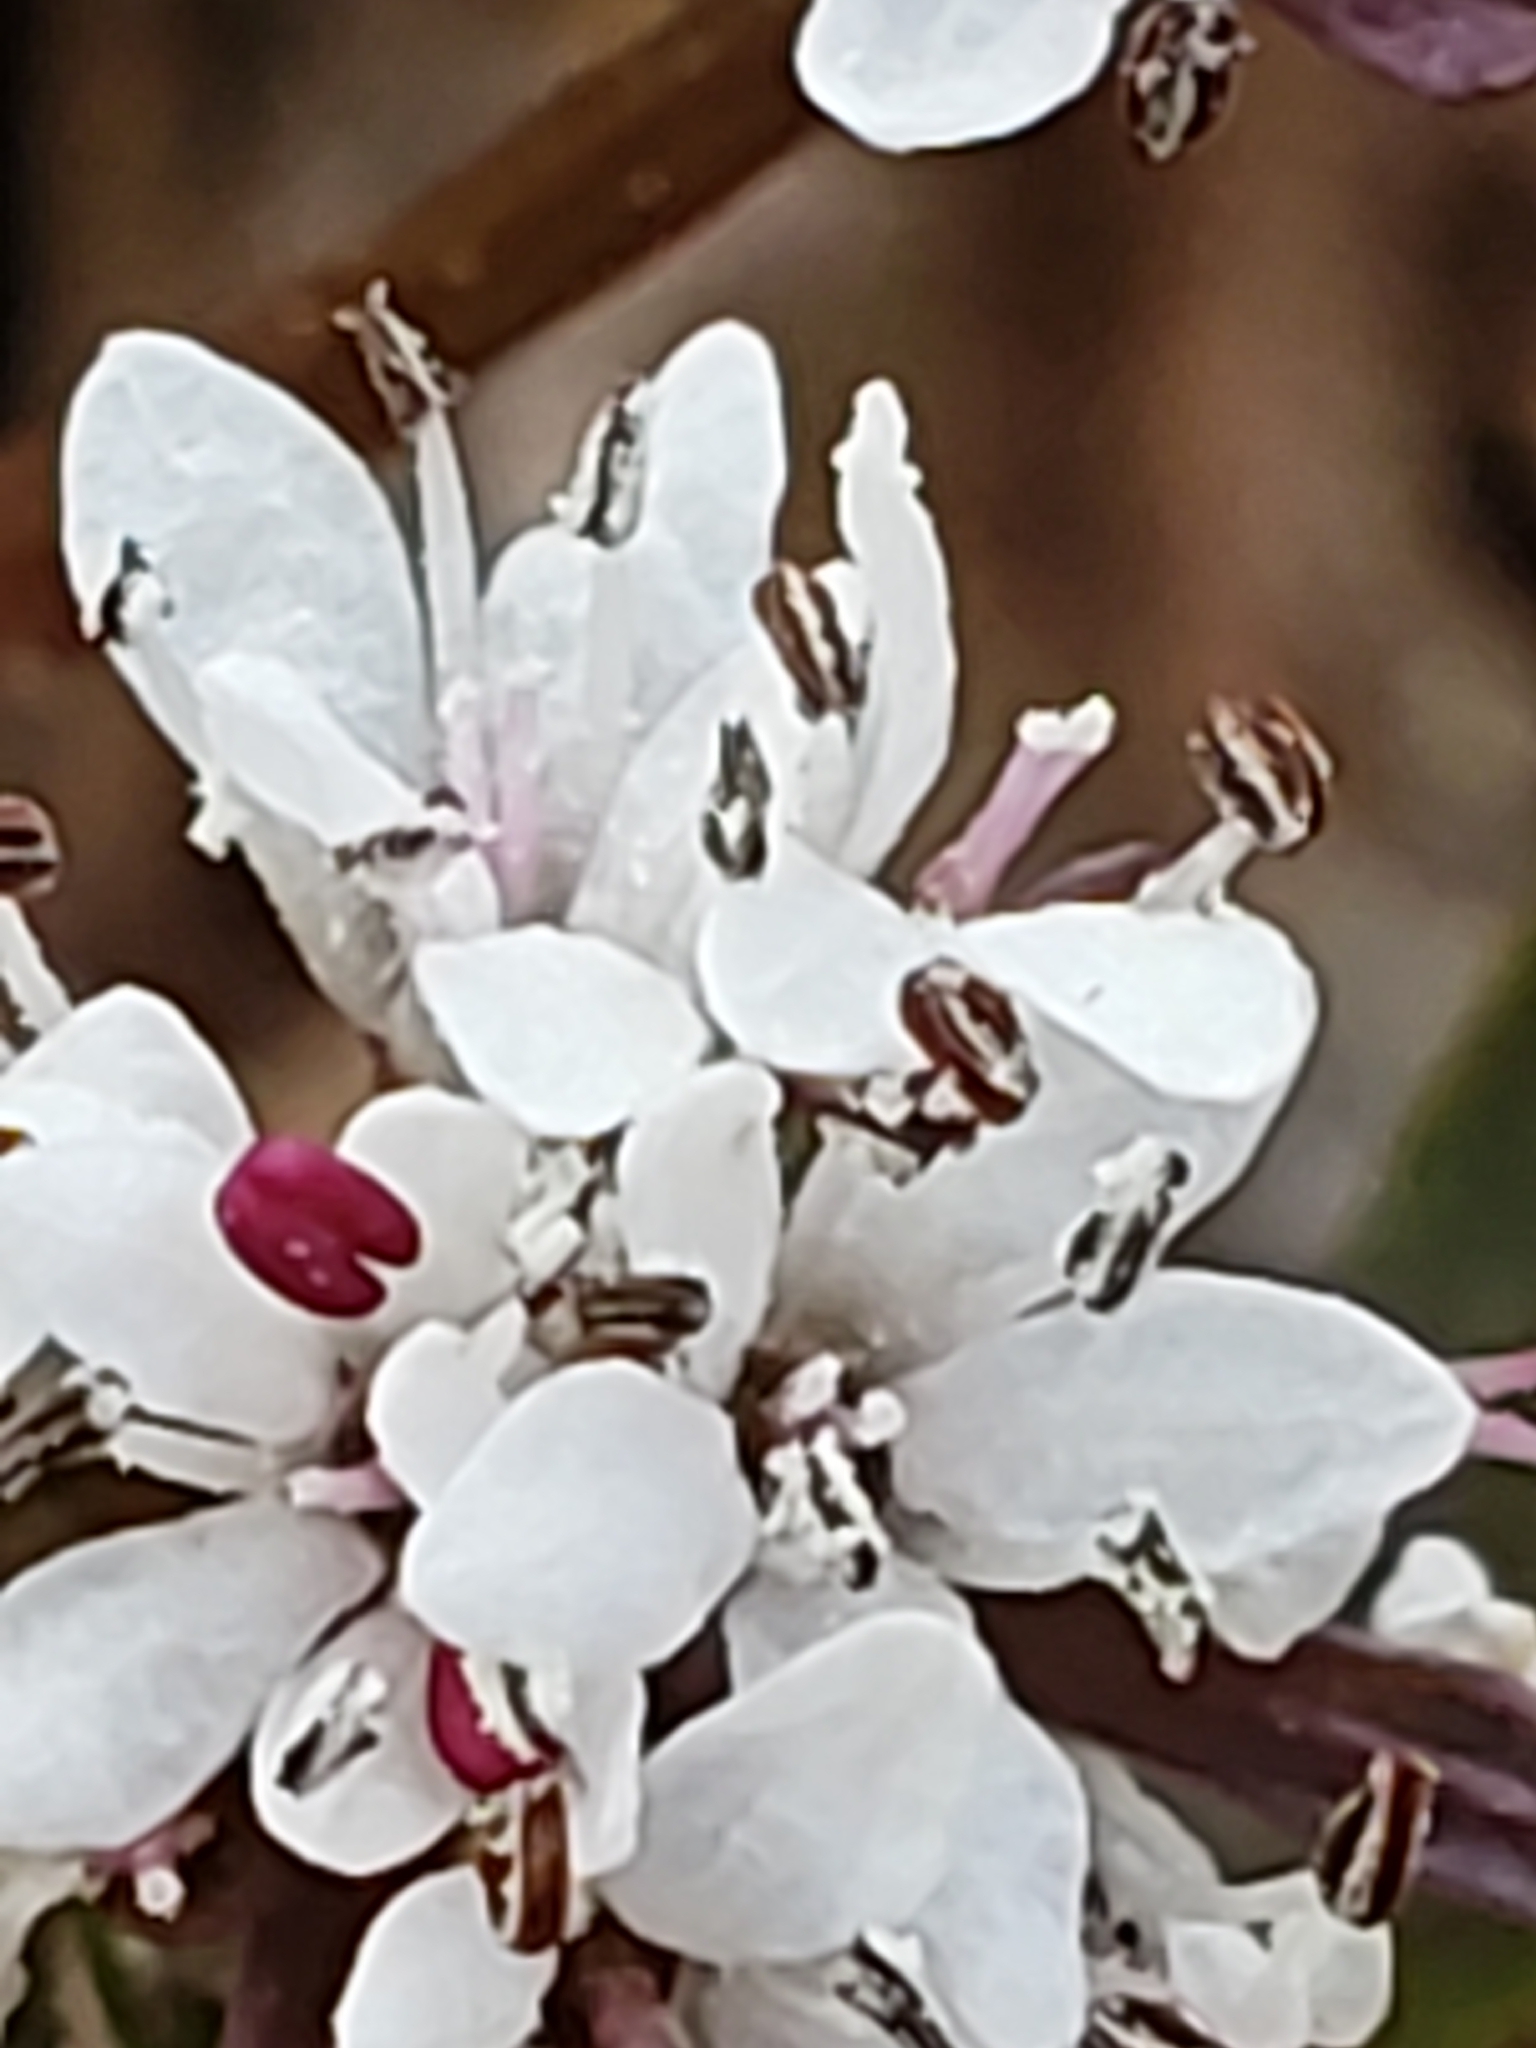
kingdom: Plantae
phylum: Tracheophyta
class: Magnoliopsida
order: Apiales
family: Apiaceae
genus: Erigenia
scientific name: Erigenia bulbosa
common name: Pepper-and-salt
